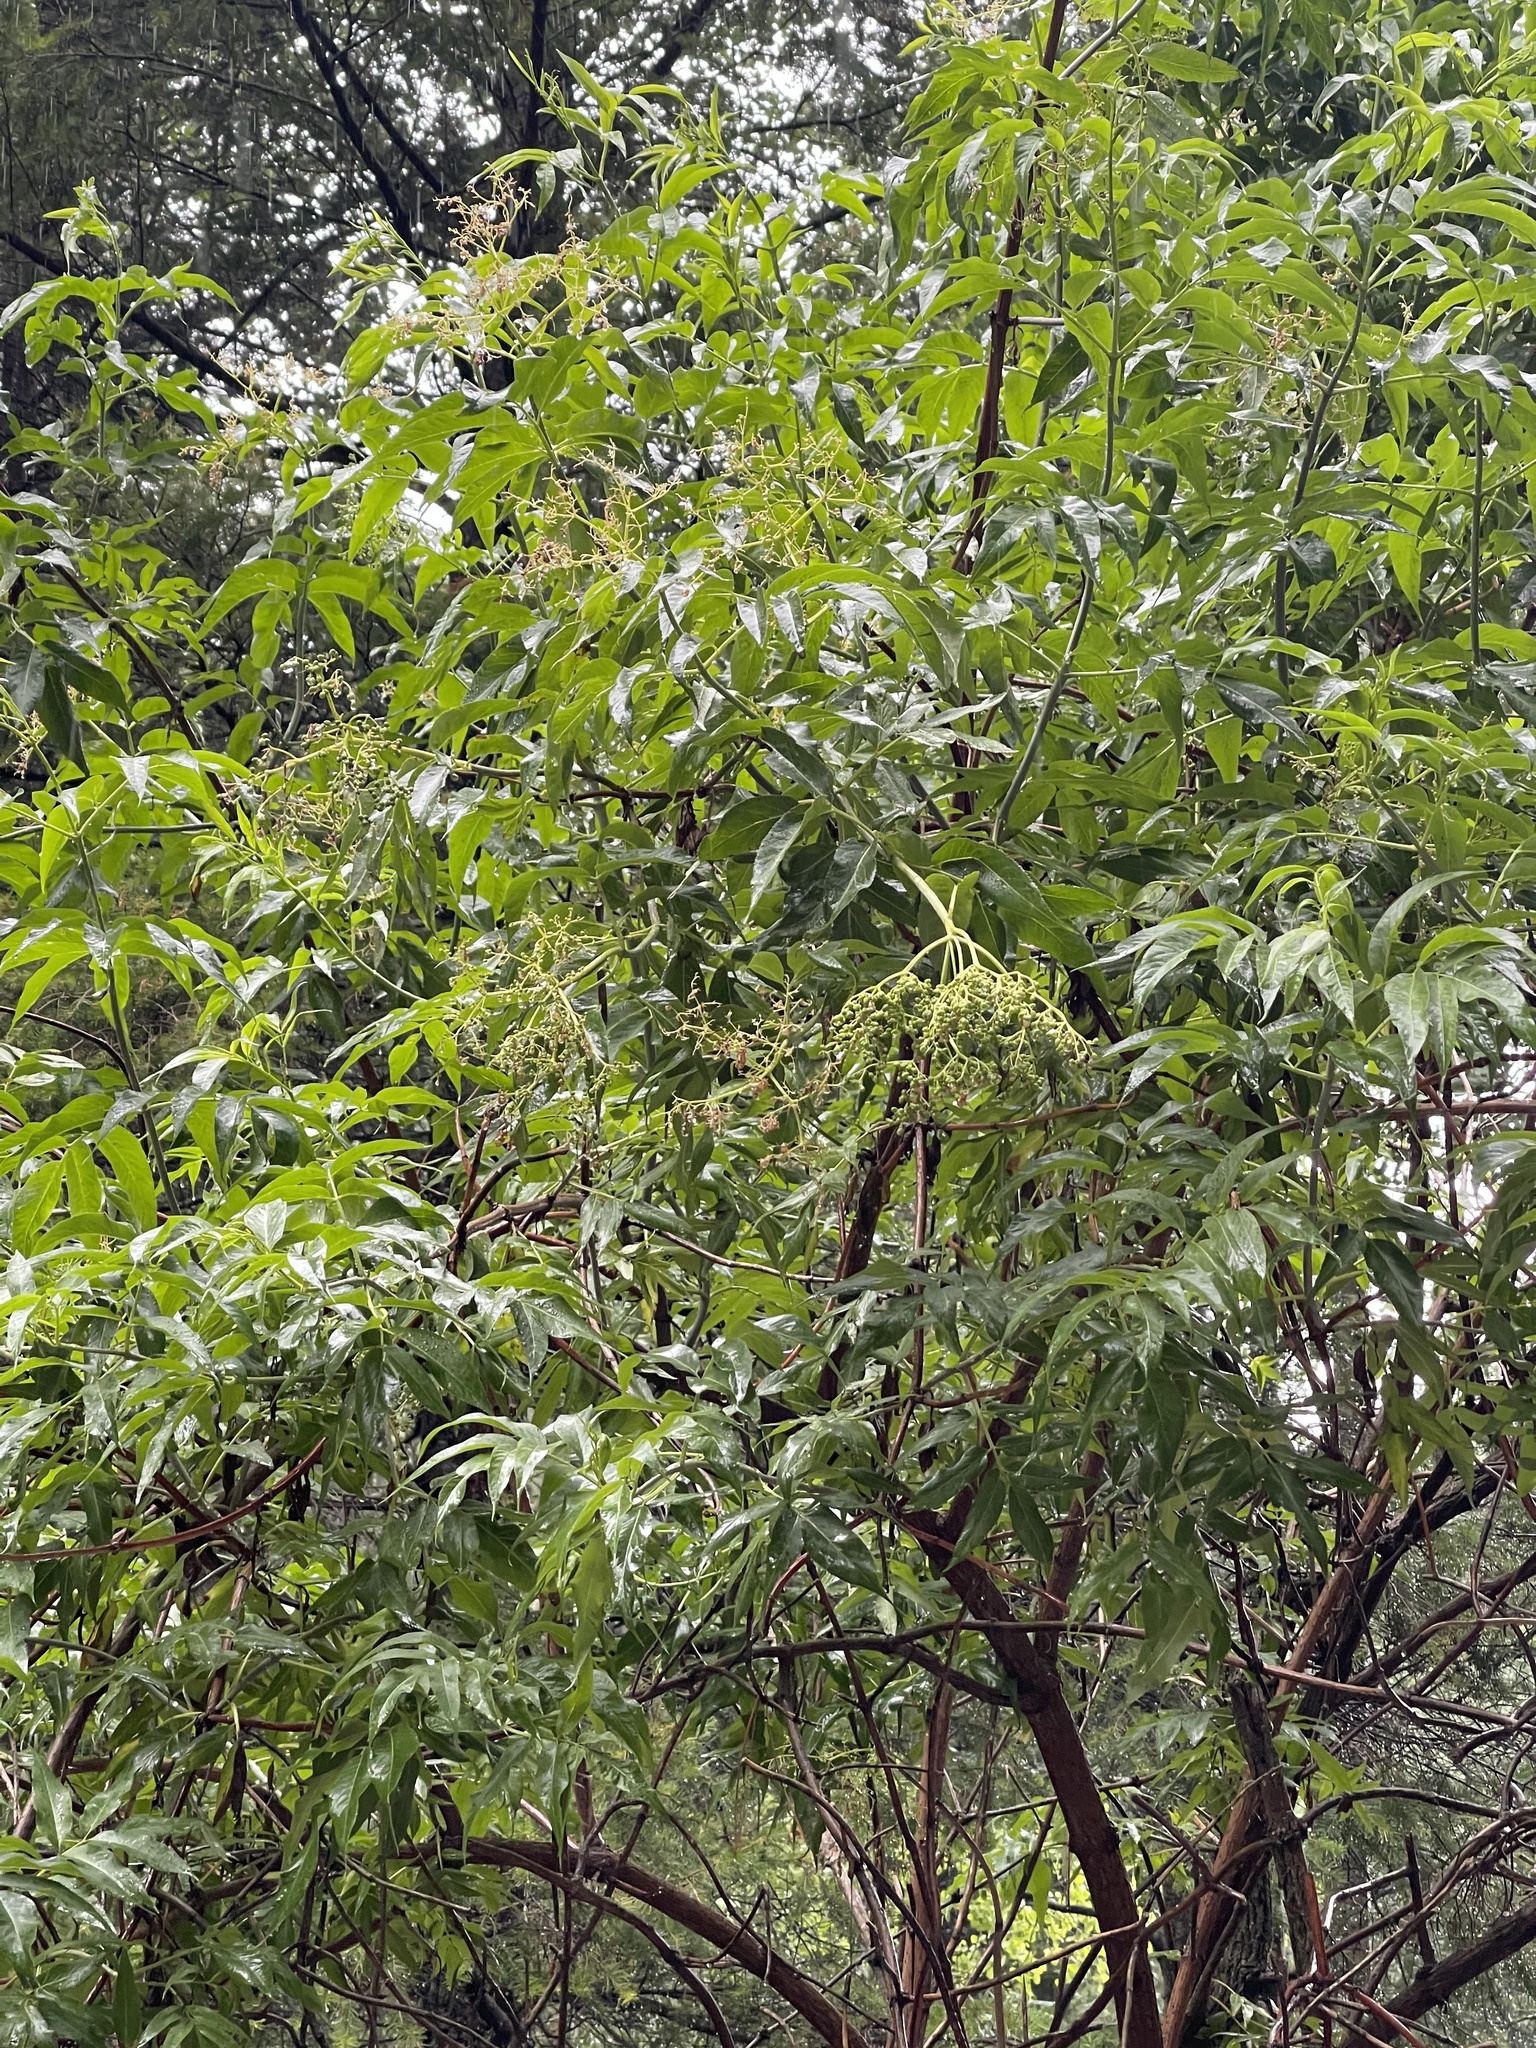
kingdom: Plantae
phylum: Tracheophyta
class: Magnoliopsida
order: Dipsacales
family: Viburnaceae
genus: Sambucus
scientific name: Sambucus cerulea
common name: Blue elder
